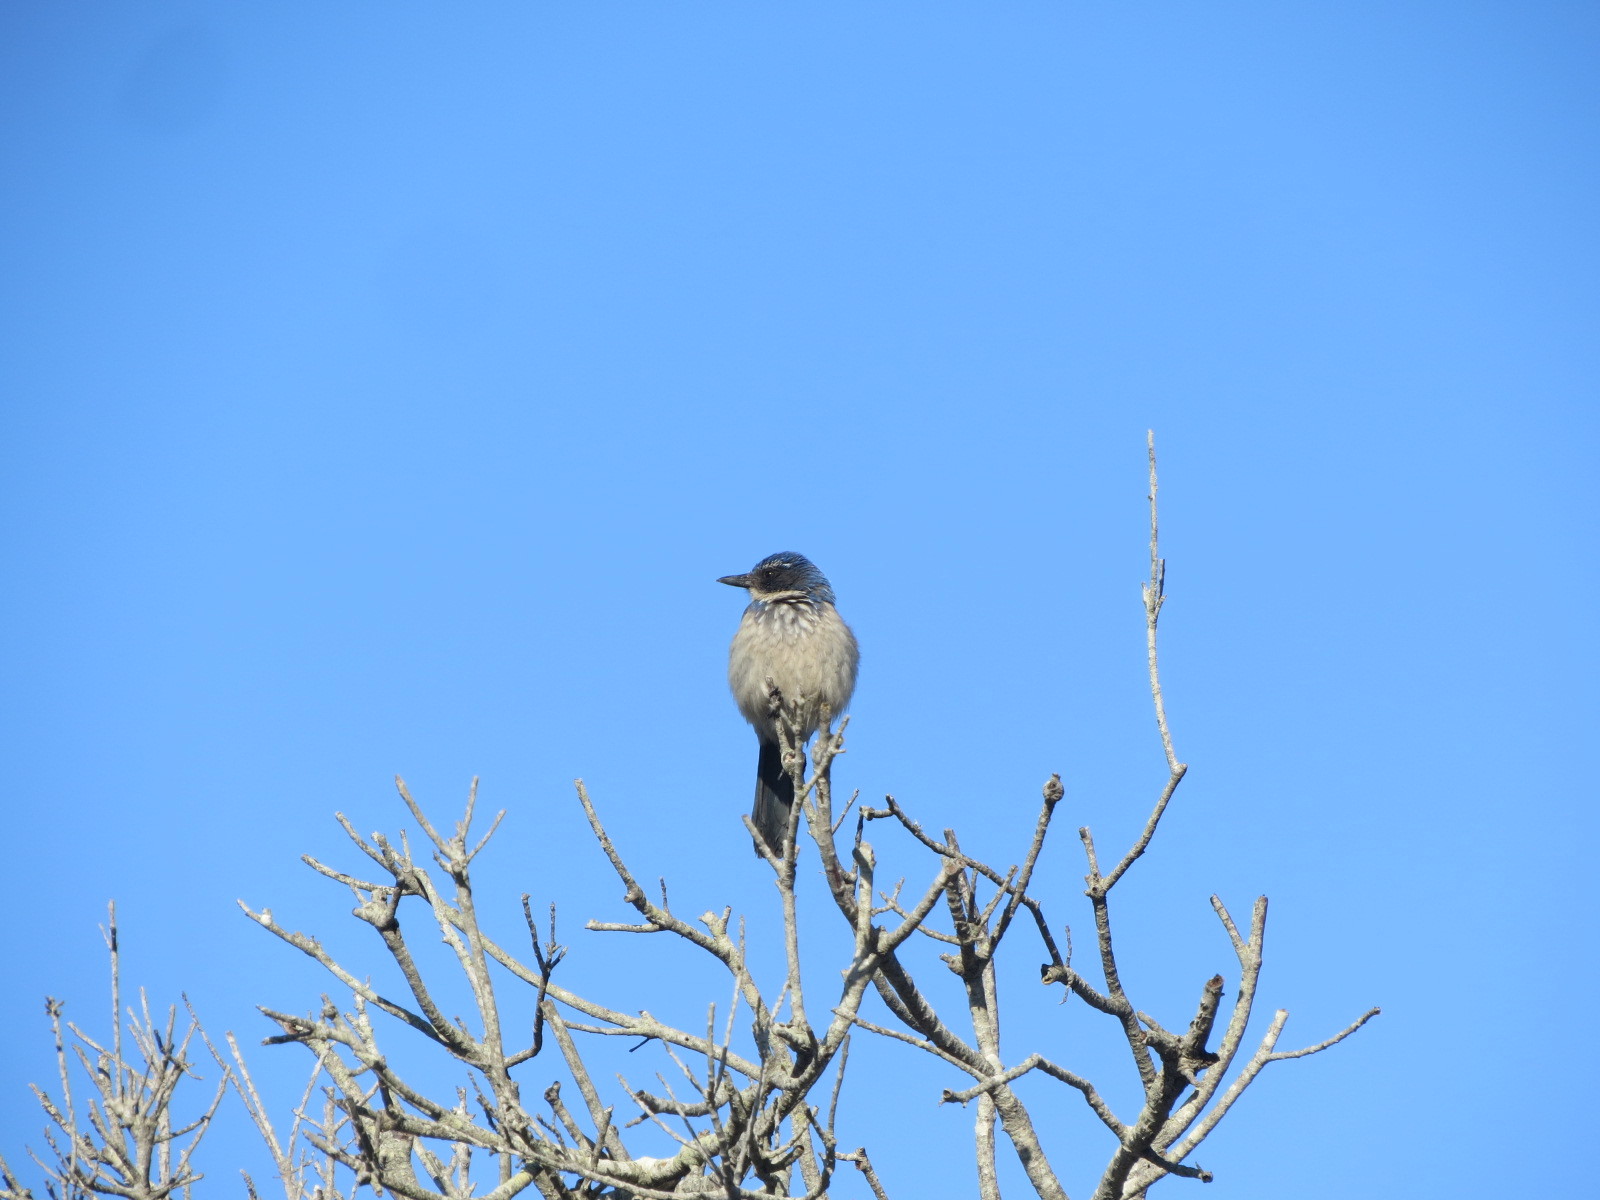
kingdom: Animalia
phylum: Chordata
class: Aves
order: Passeriformes
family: Corvidae
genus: Aphelocoma
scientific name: Aphelocoma californica
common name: California scrub-jay
